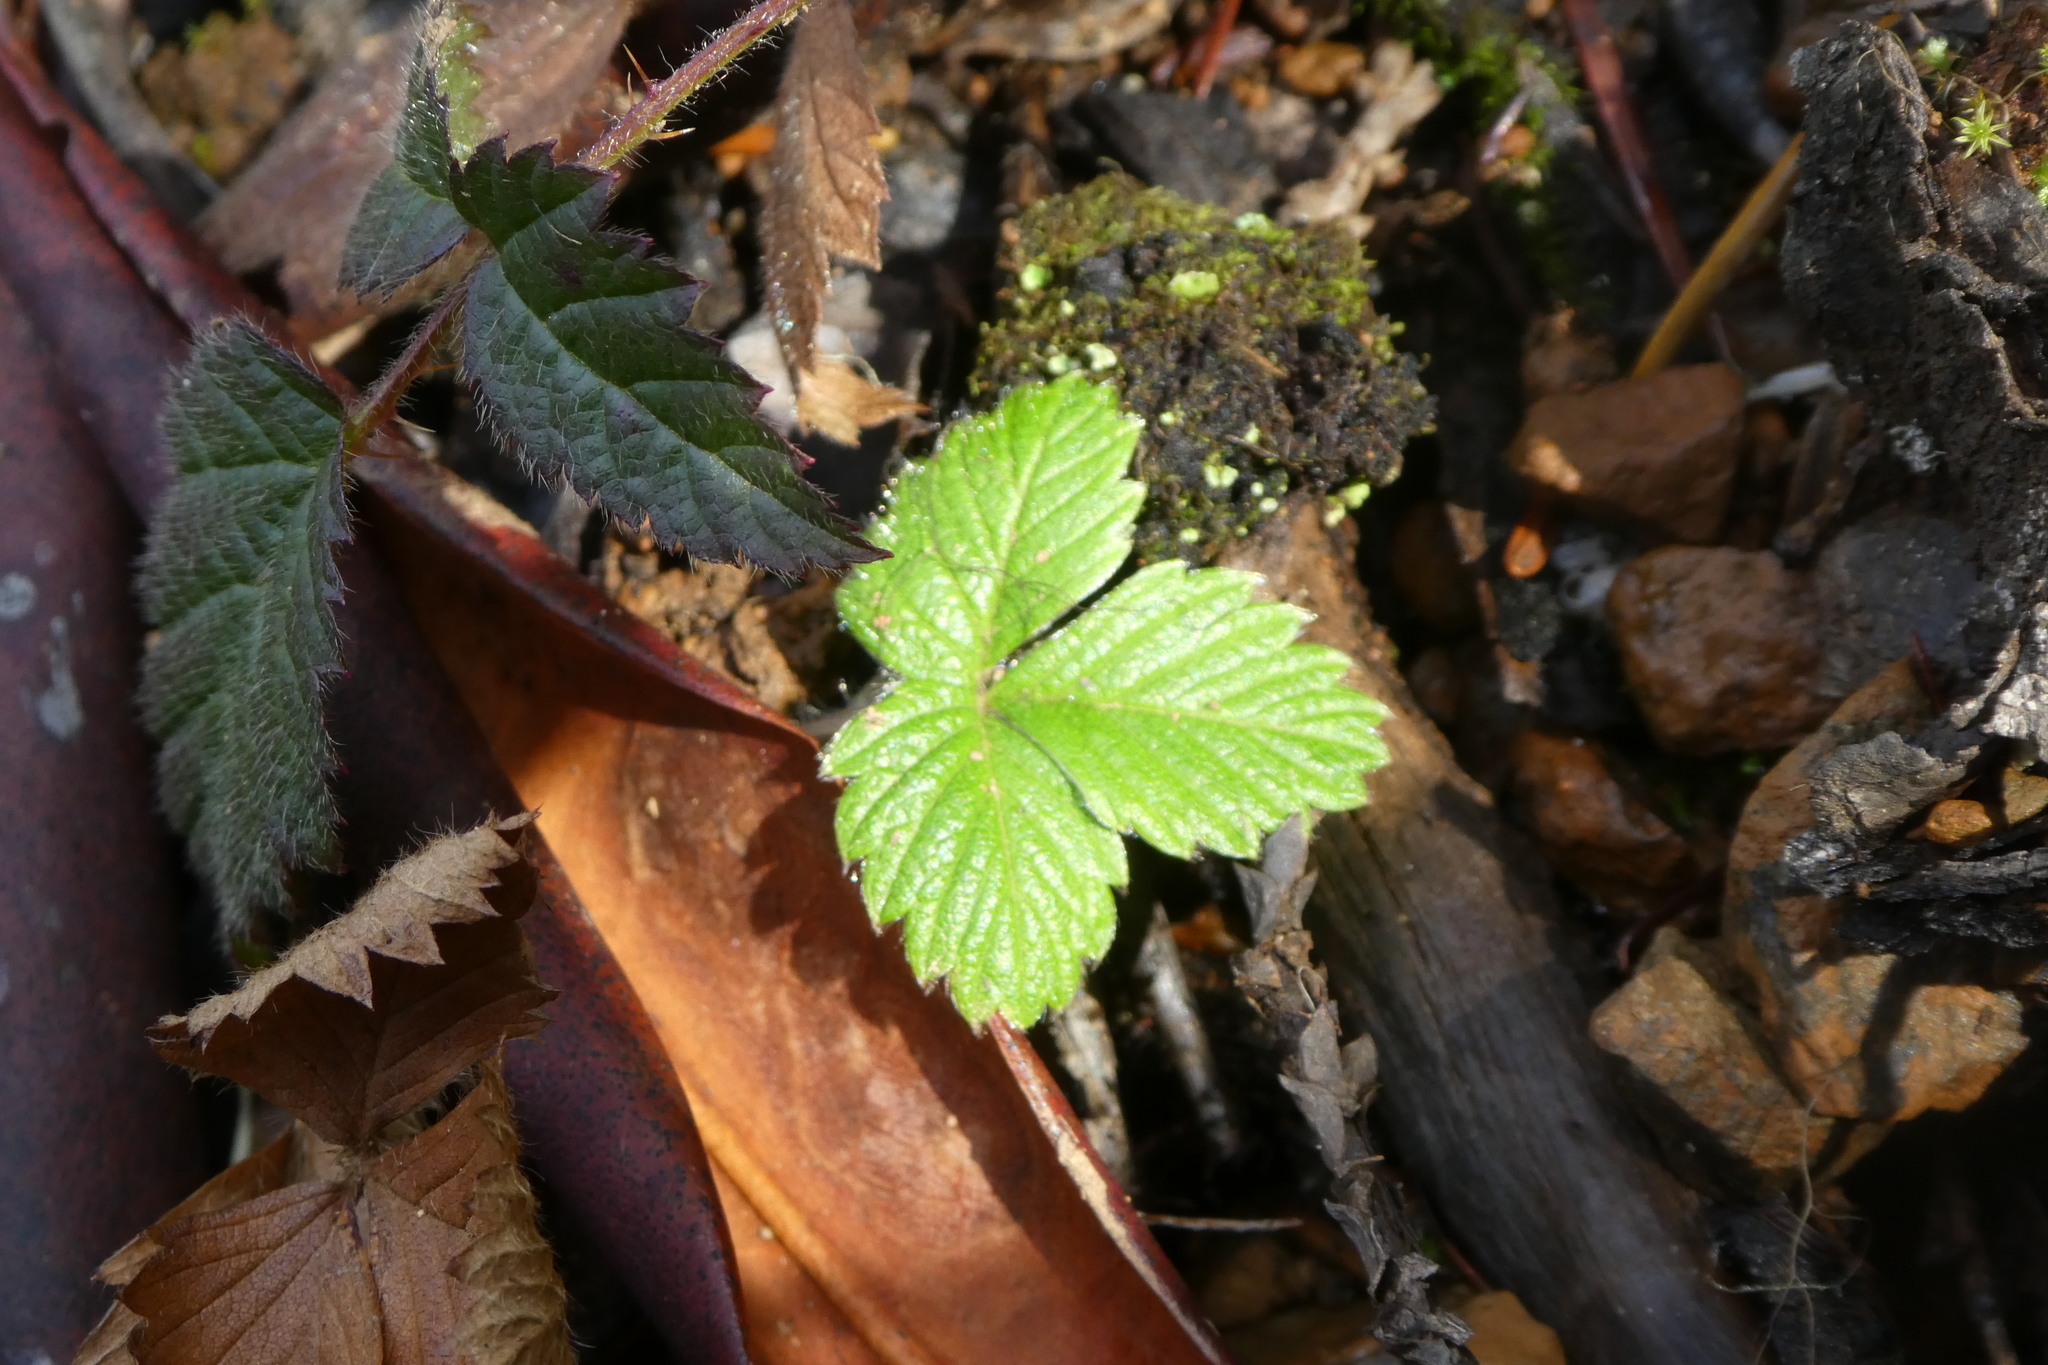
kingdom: Plantae
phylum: Tracheophyta
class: Magnoliopsida
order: Rosales
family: Rosaceae
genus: Fragaria
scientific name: Fragaria vesca
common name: Wild strawberry
